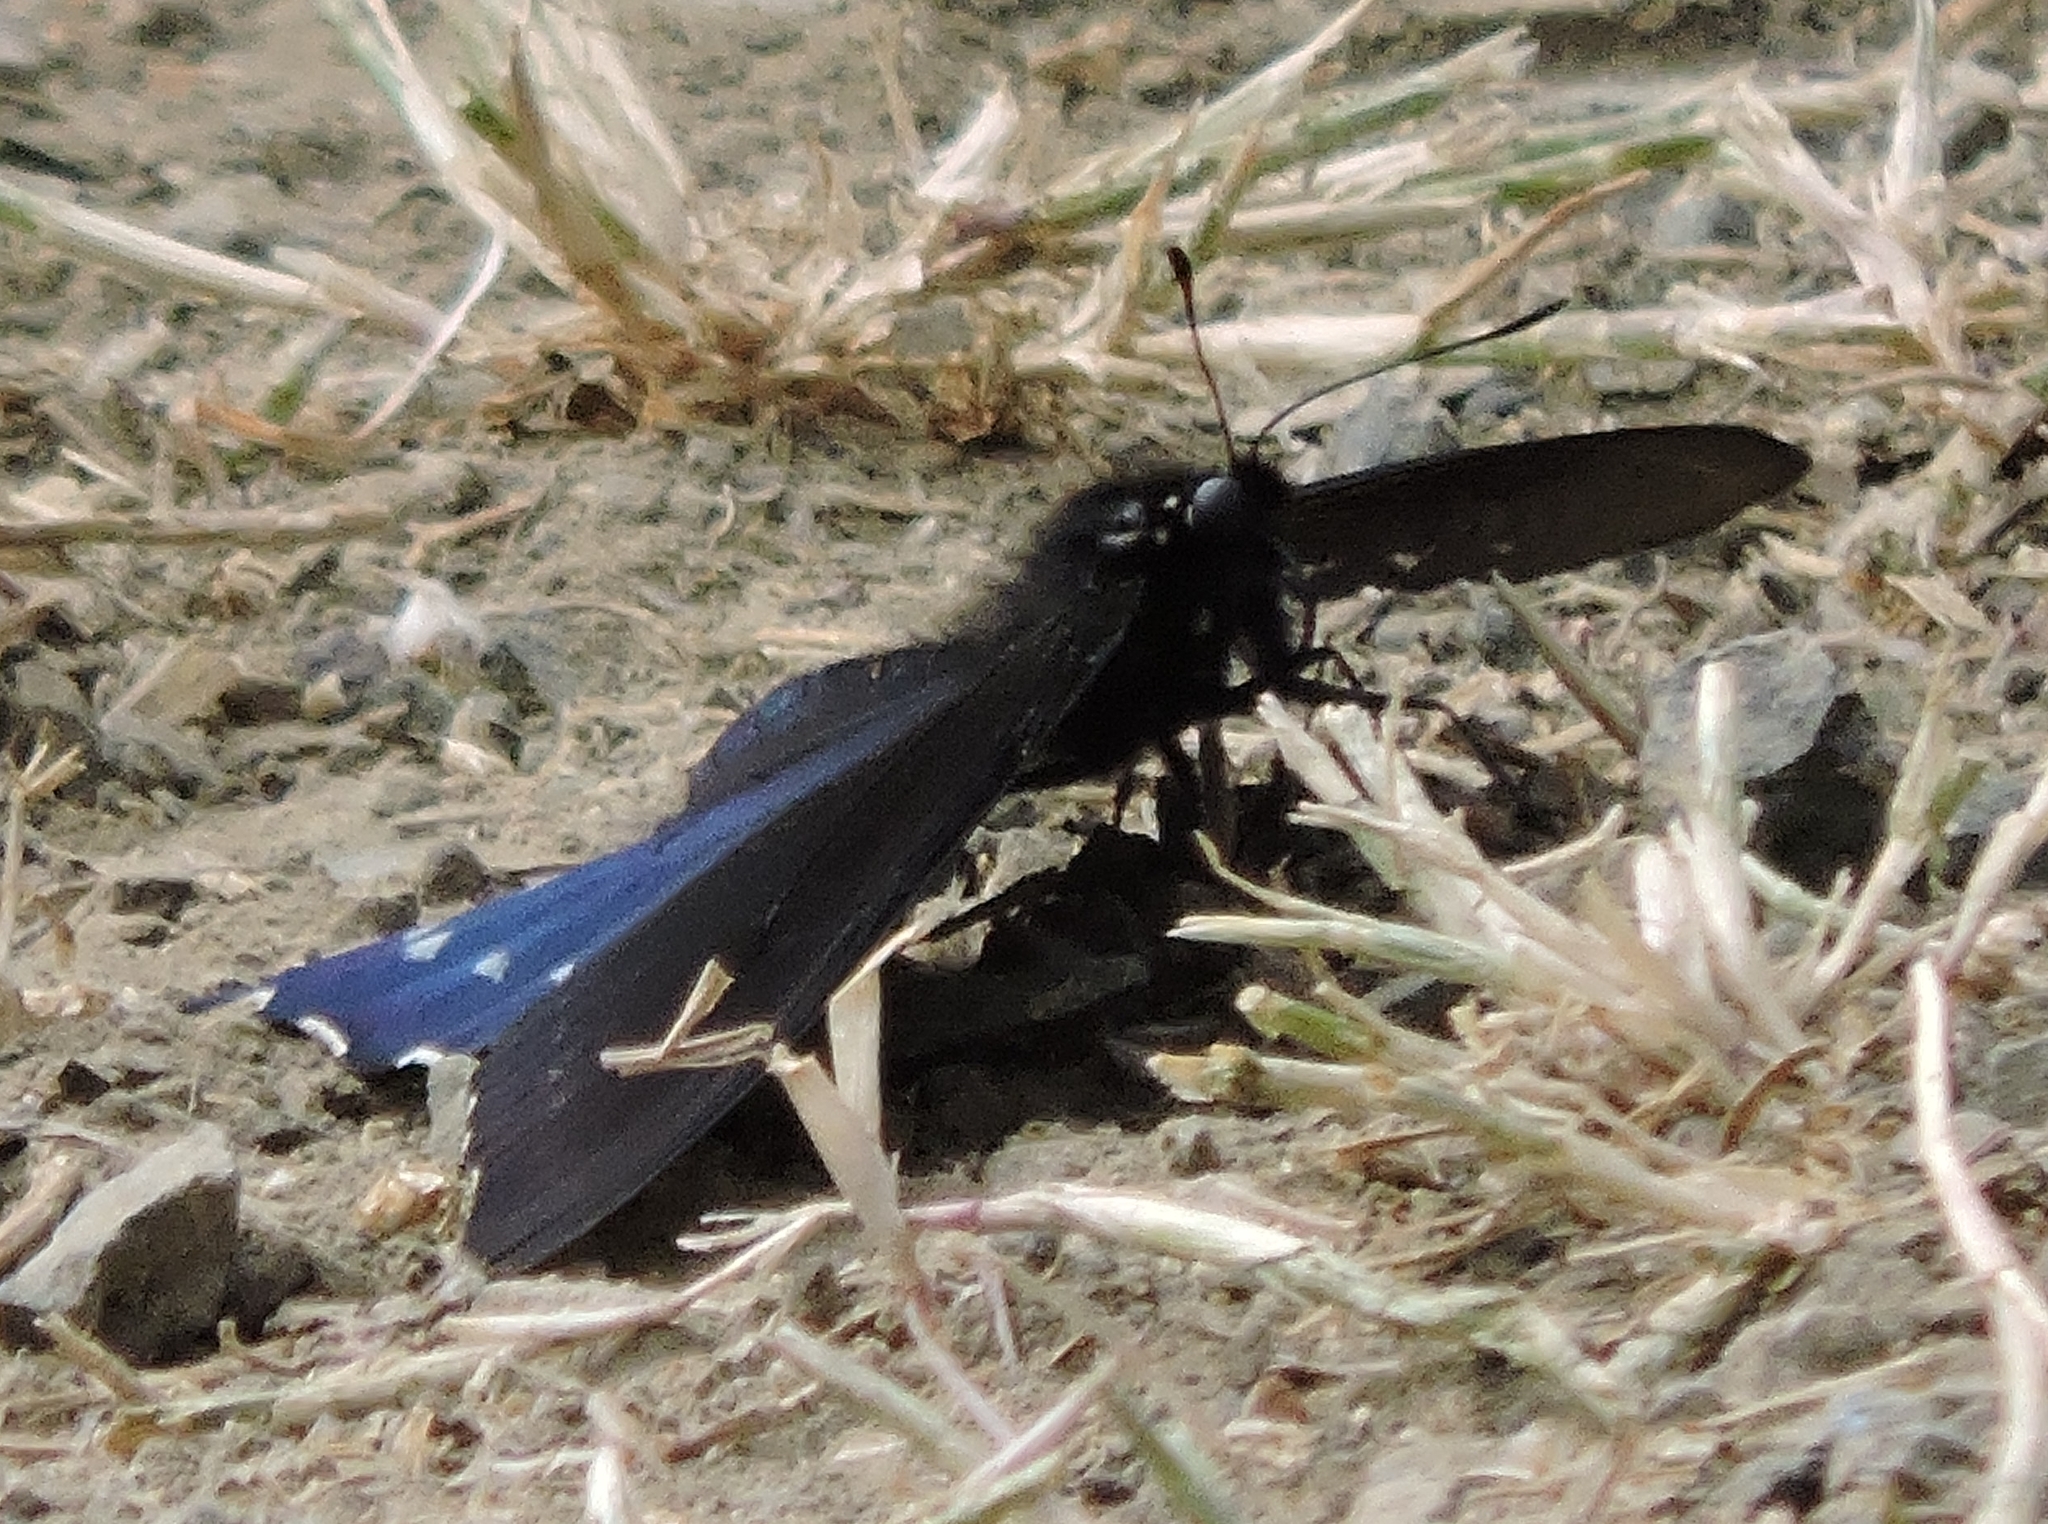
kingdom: Animalia
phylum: Arthropoda
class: Insecta
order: Lepidoptera
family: Papilionidae
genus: Battus
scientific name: Battus philenor
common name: Pipevine swallowtail
